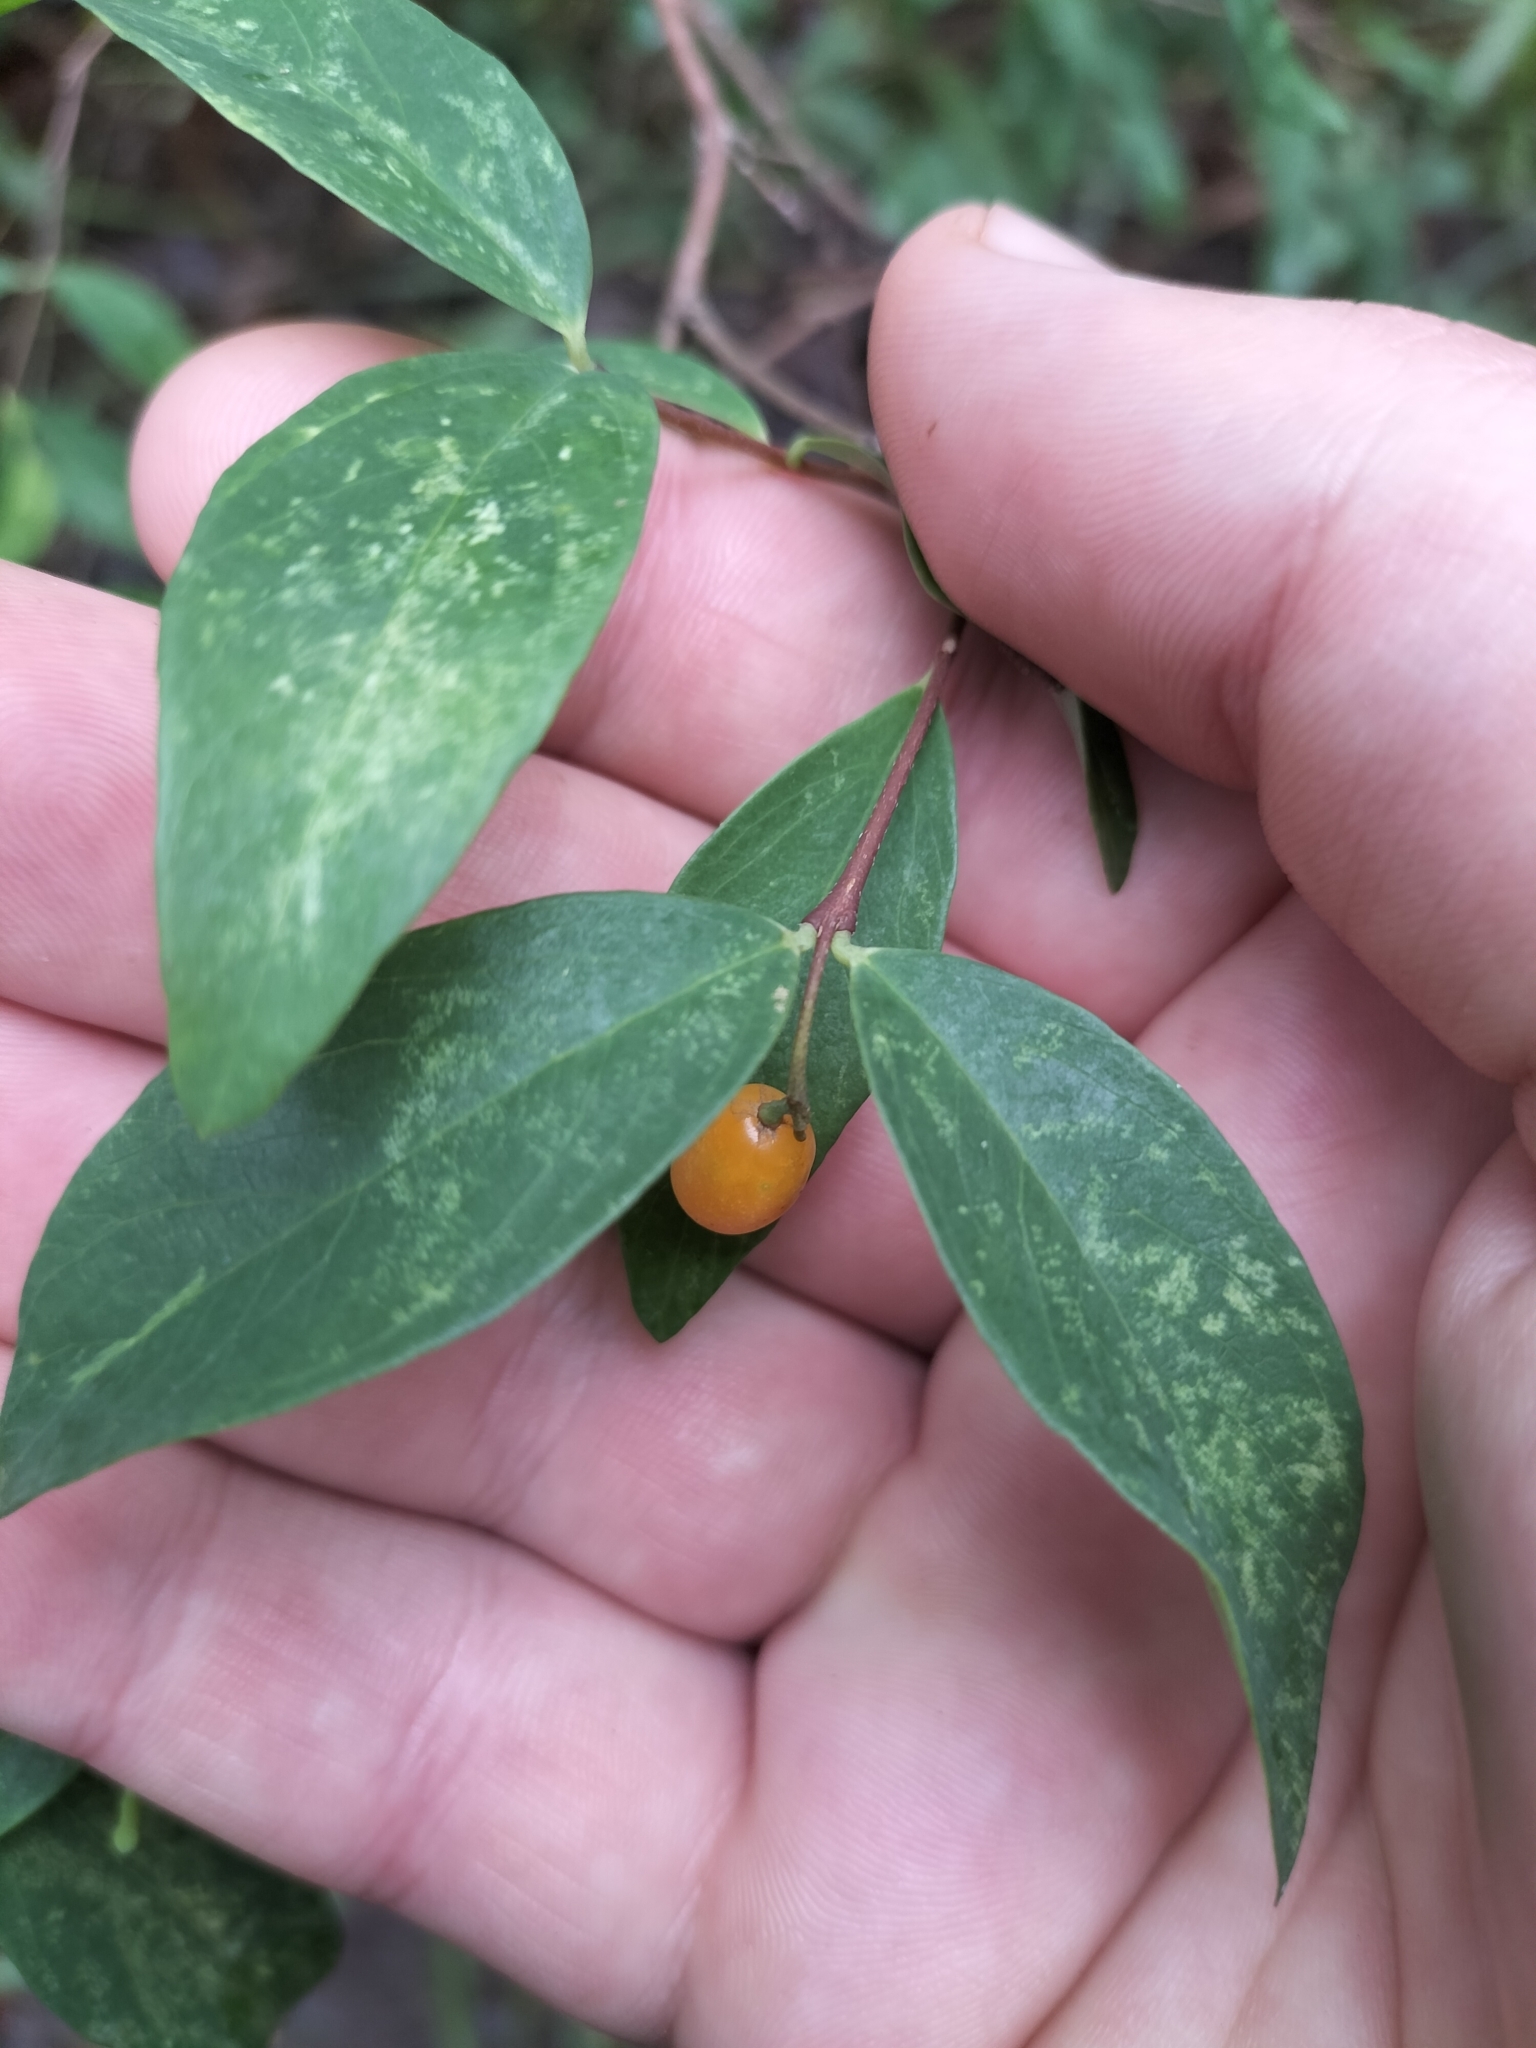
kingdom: Plantae
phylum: Tracheophyta
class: Magnoliopsida
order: Malvales
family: Thymelaeaceae
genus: Wikstroemia
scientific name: Wikstroemia indica
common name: Tiebush
